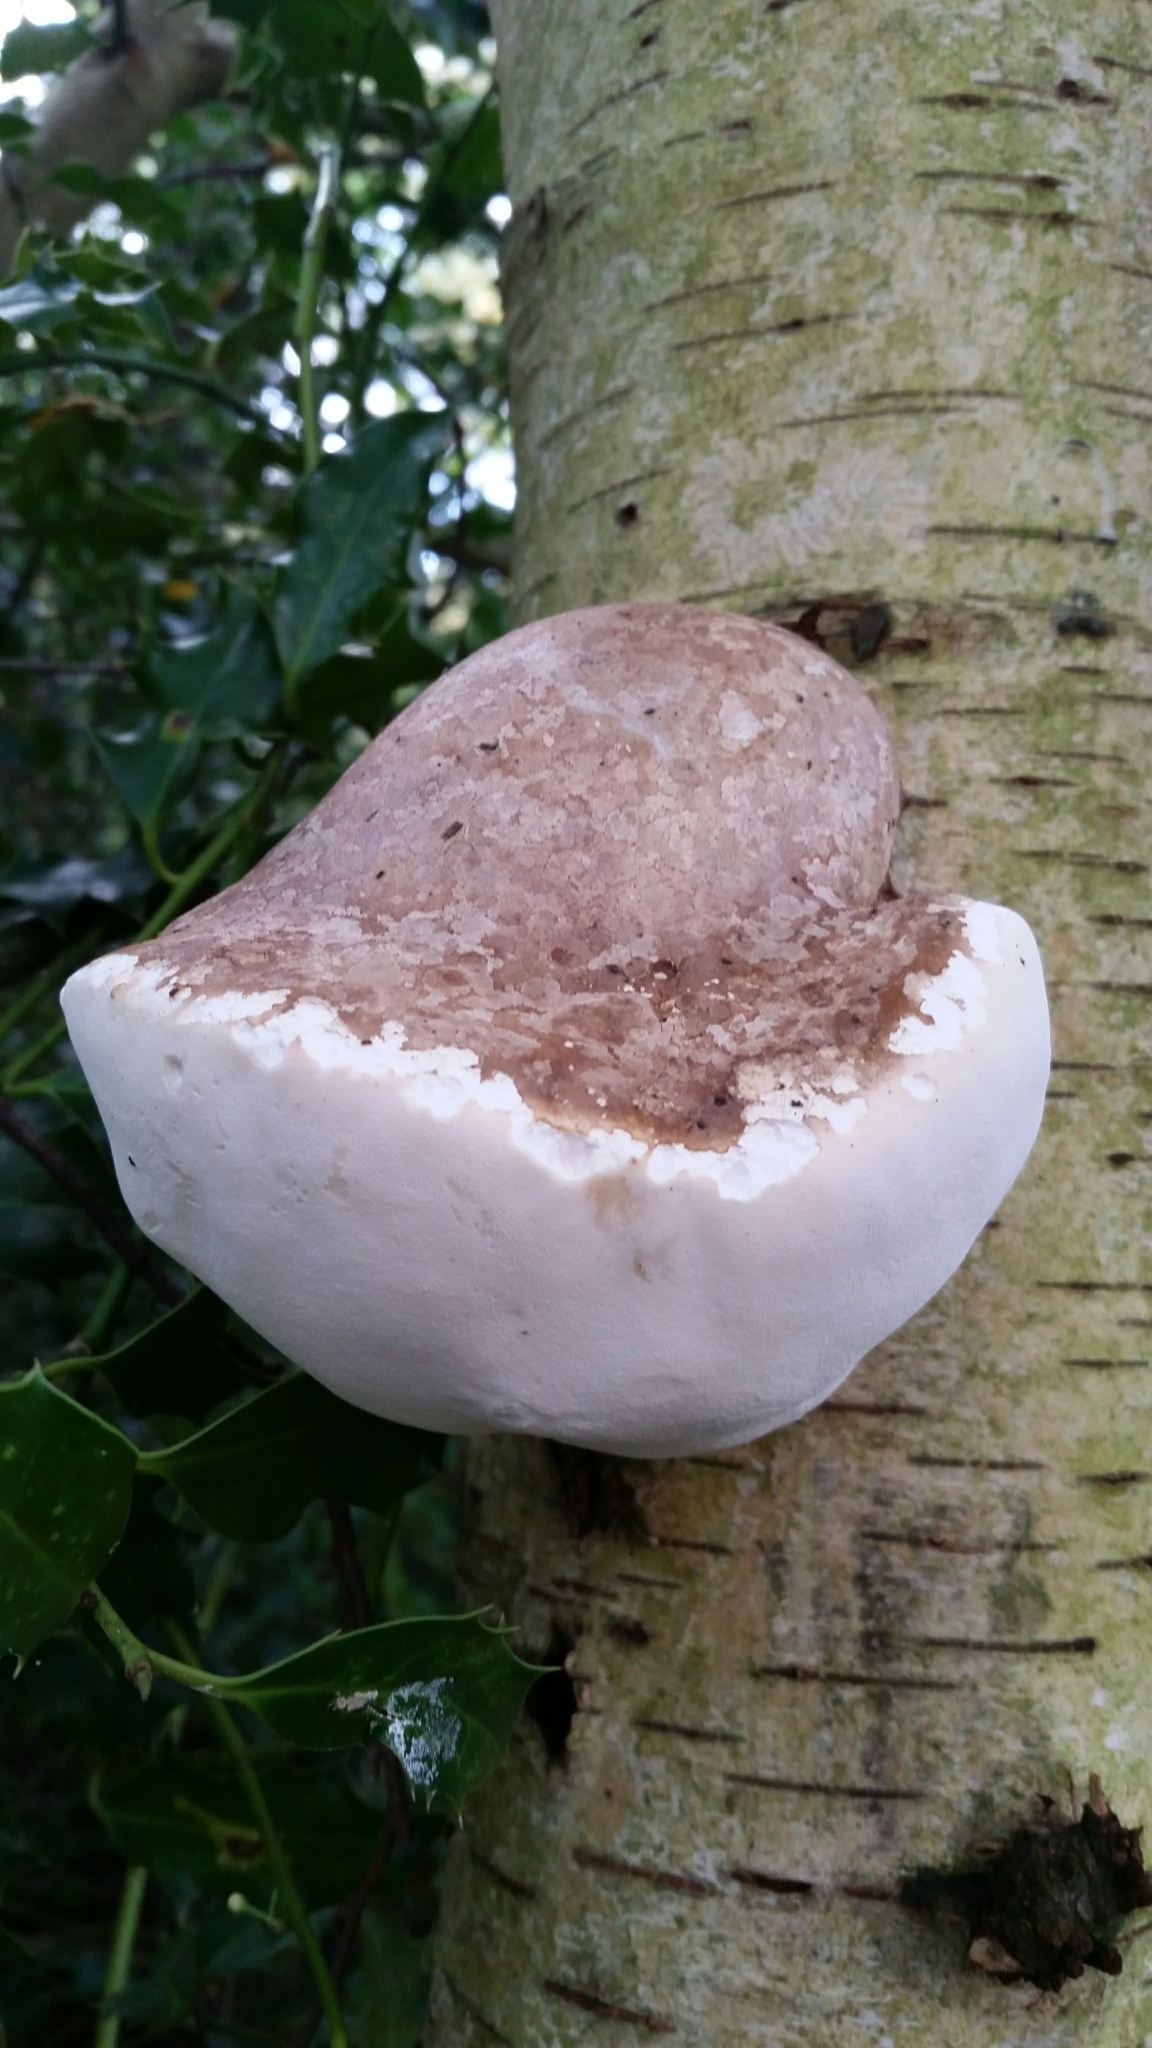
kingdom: Fungi
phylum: Basidiomycota
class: Agaricomycetes
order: Polyporales
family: Fomitopsidaceae
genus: Fomitopsis
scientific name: Fomitopsis betulina
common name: Birch polypore
